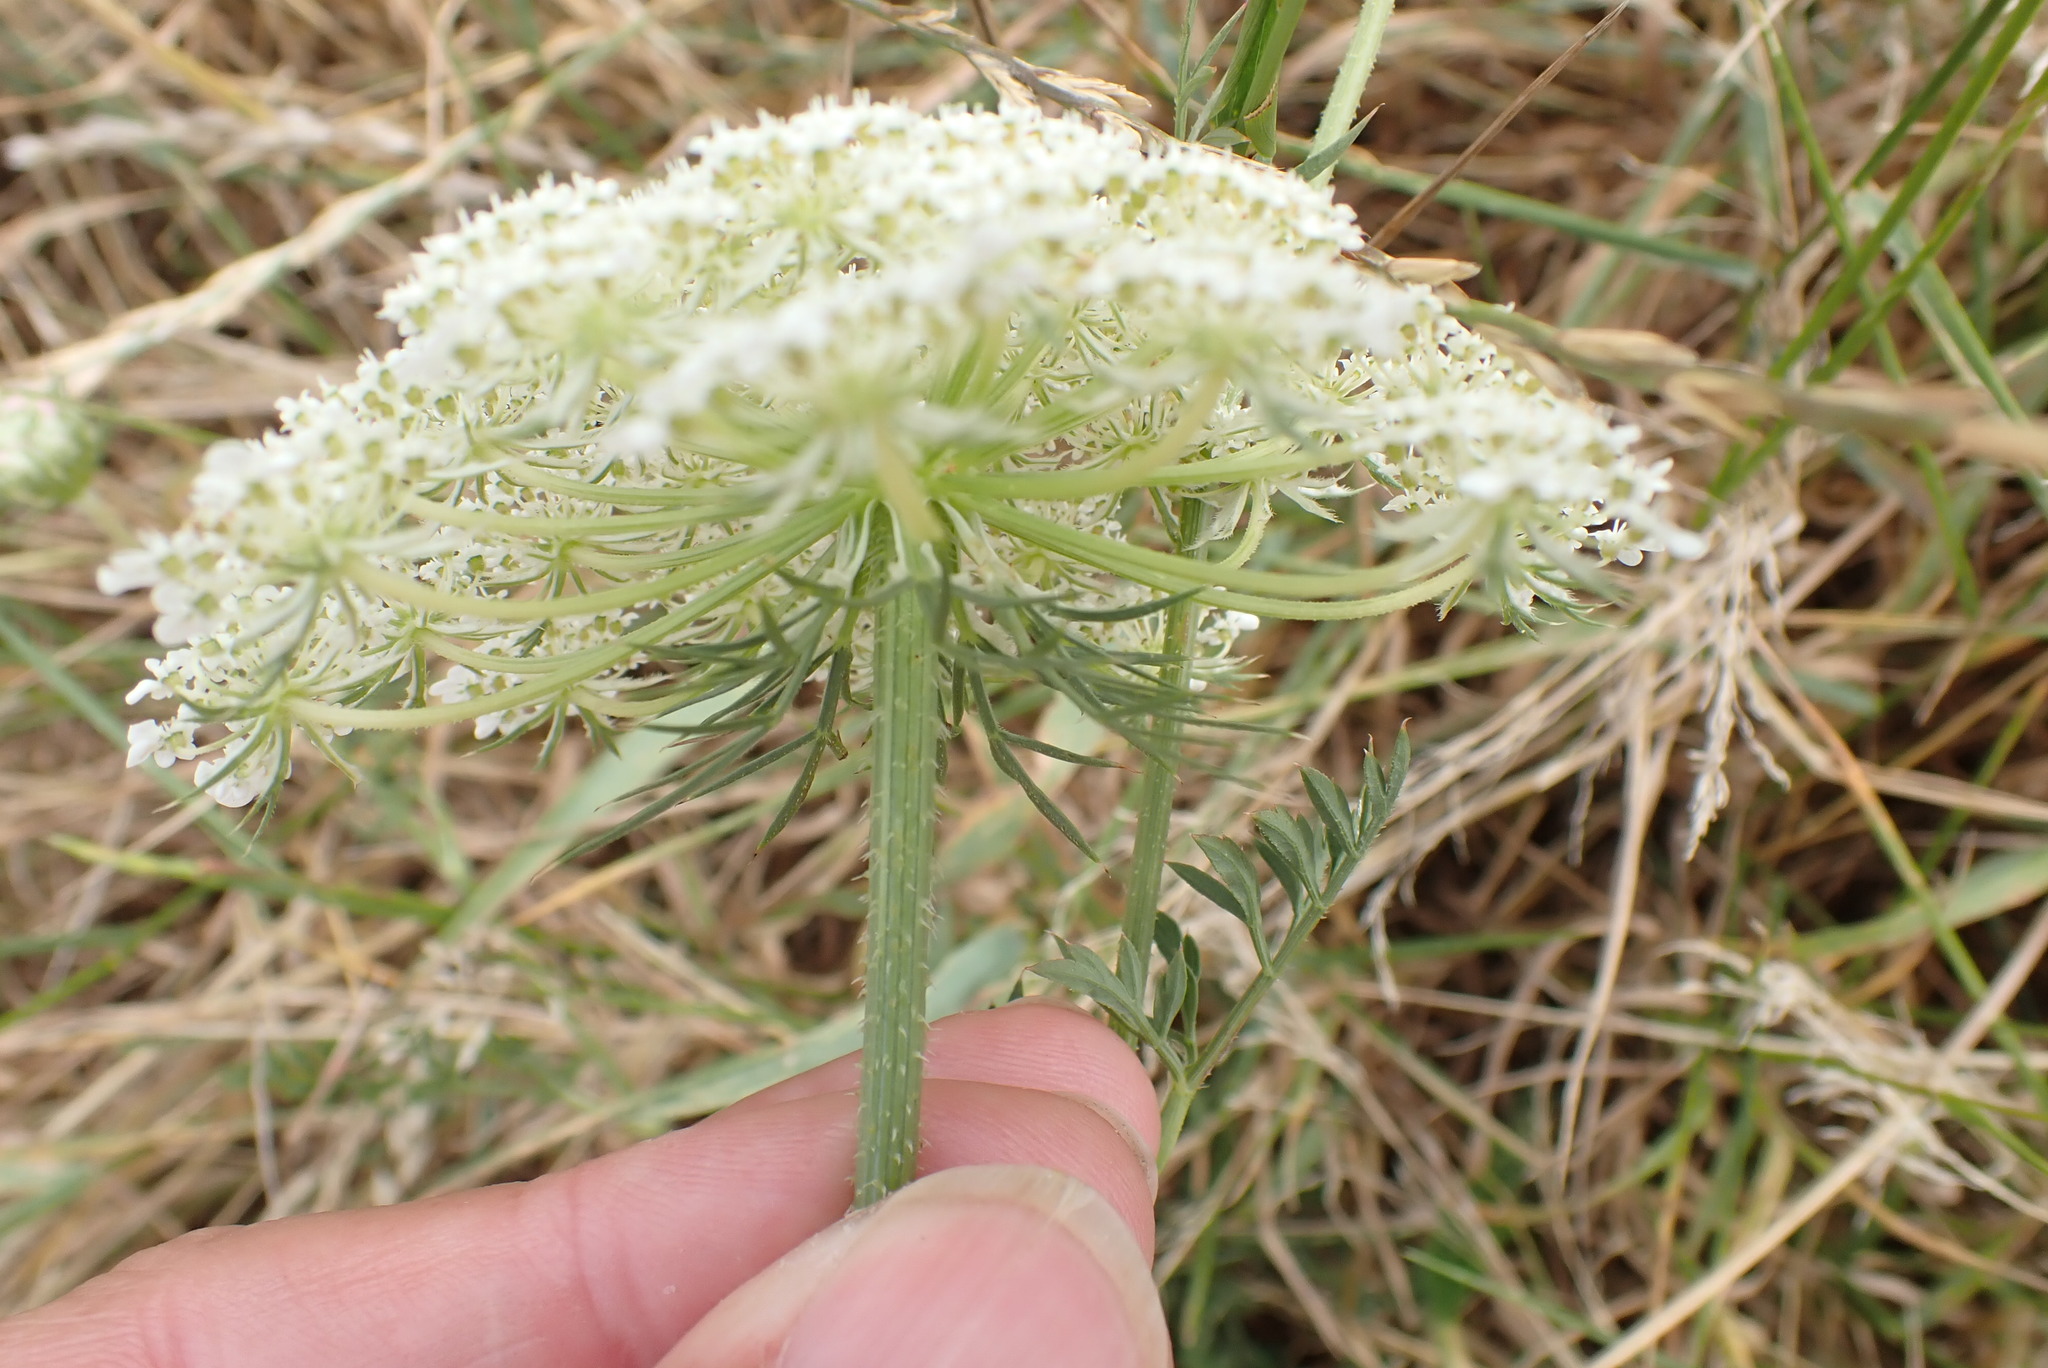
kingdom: Plantae
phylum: Tracheophyta
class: Magnoliopsida
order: Apiales
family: Apiaceae
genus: Daucus
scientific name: Daucus carota
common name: Wild carrot
